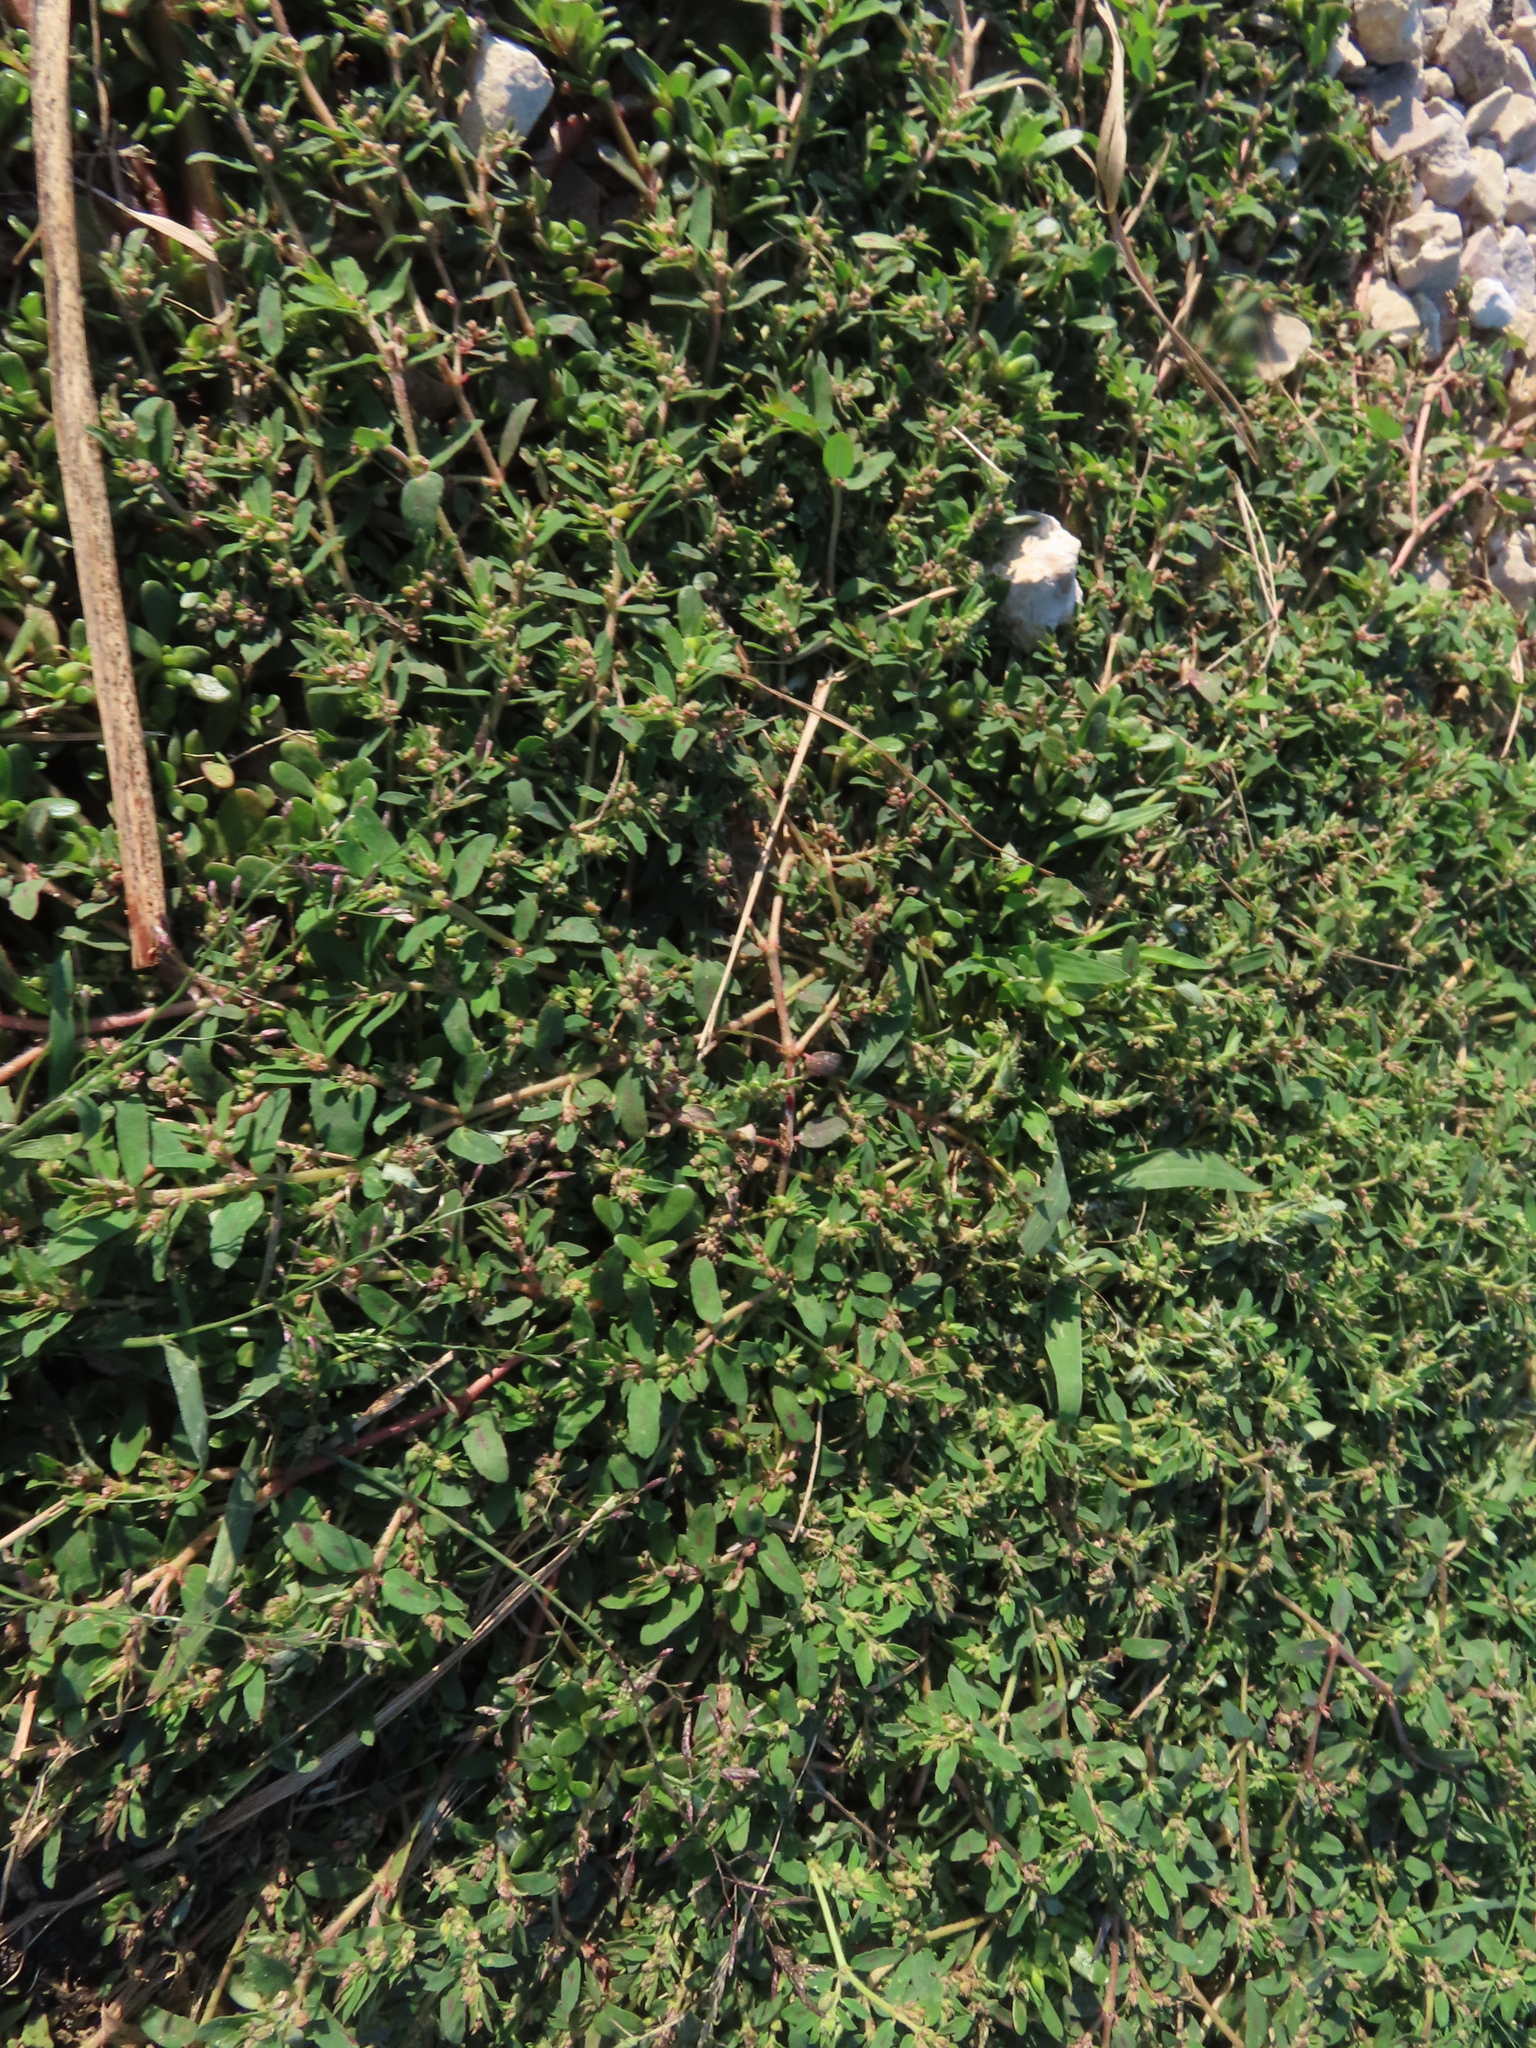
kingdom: Plantae
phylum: Tracheophyta
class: Magnoliopsida
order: Malpighiales
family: Euphorbiaceae
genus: Euphorbia
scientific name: Euphorbia maculata
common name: Spotted spurge
